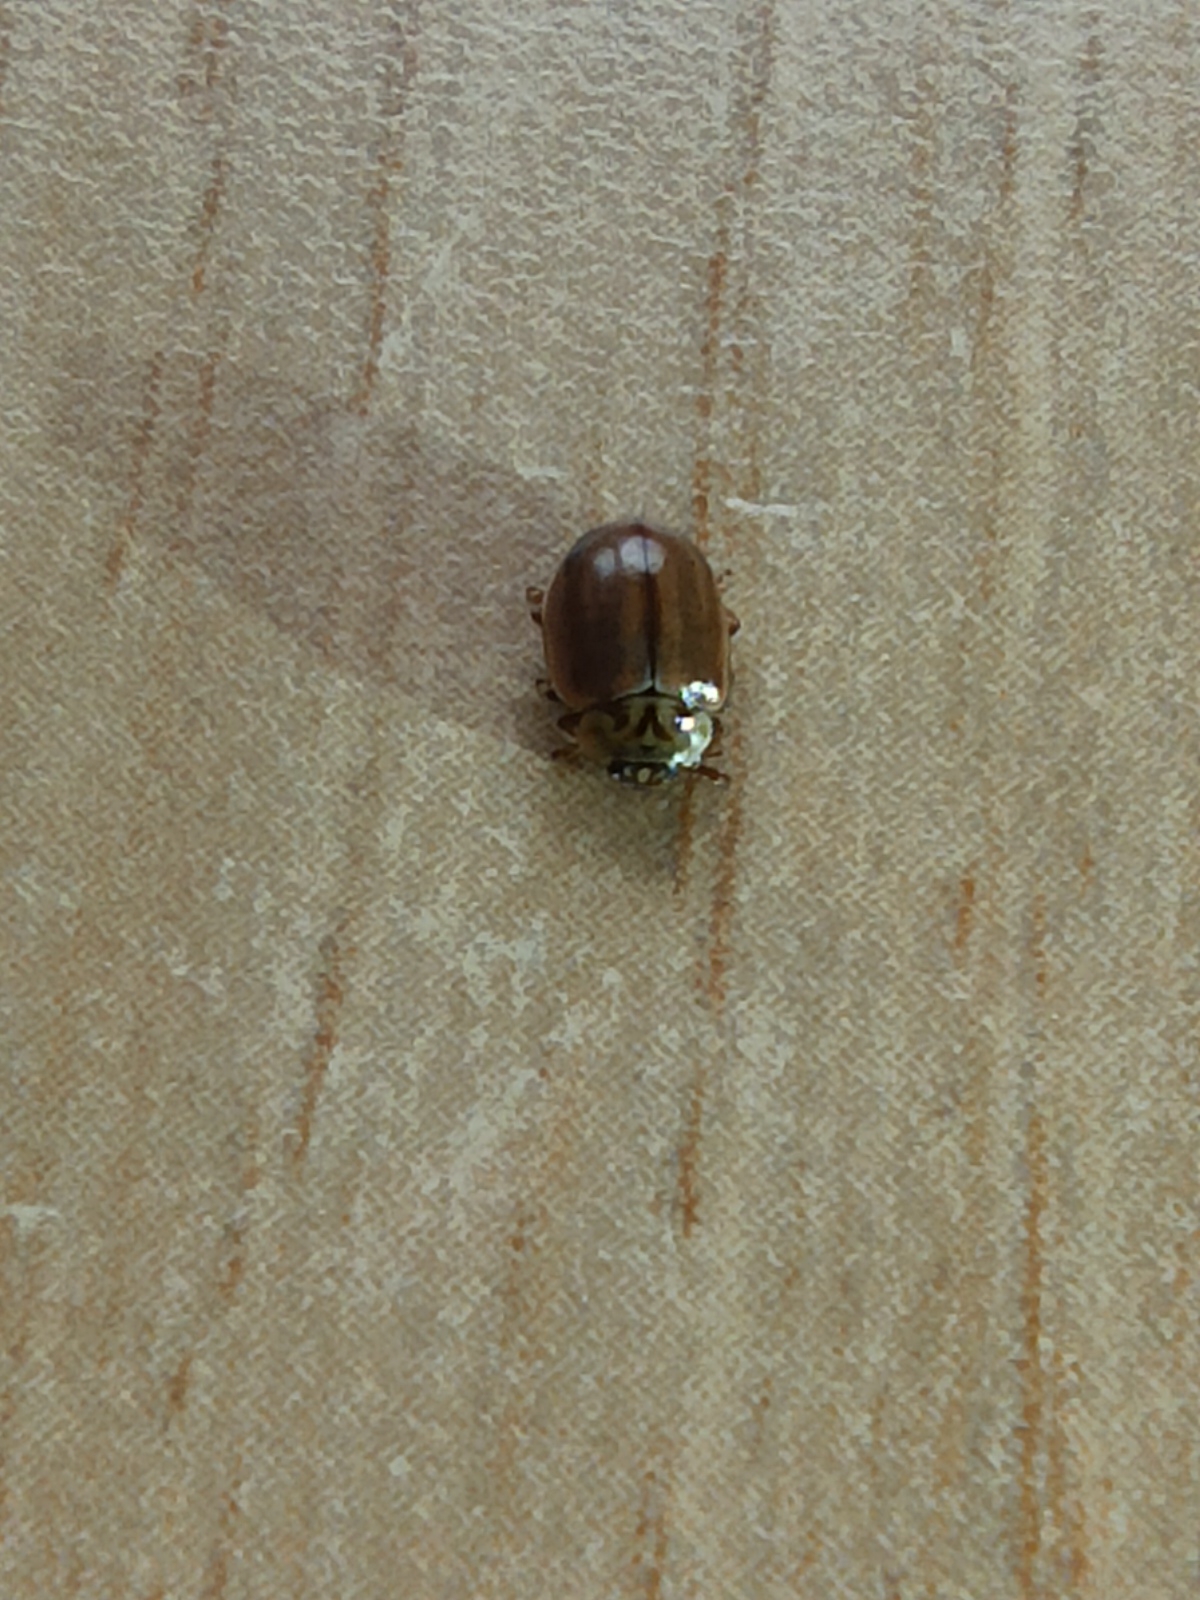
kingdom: Animalia
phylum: Arthropoda
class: Insecta
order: Coleoptera
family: Coccinellidae
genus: Aphidecta
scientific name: Aphidecta obliterata
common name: Larch ladybird
